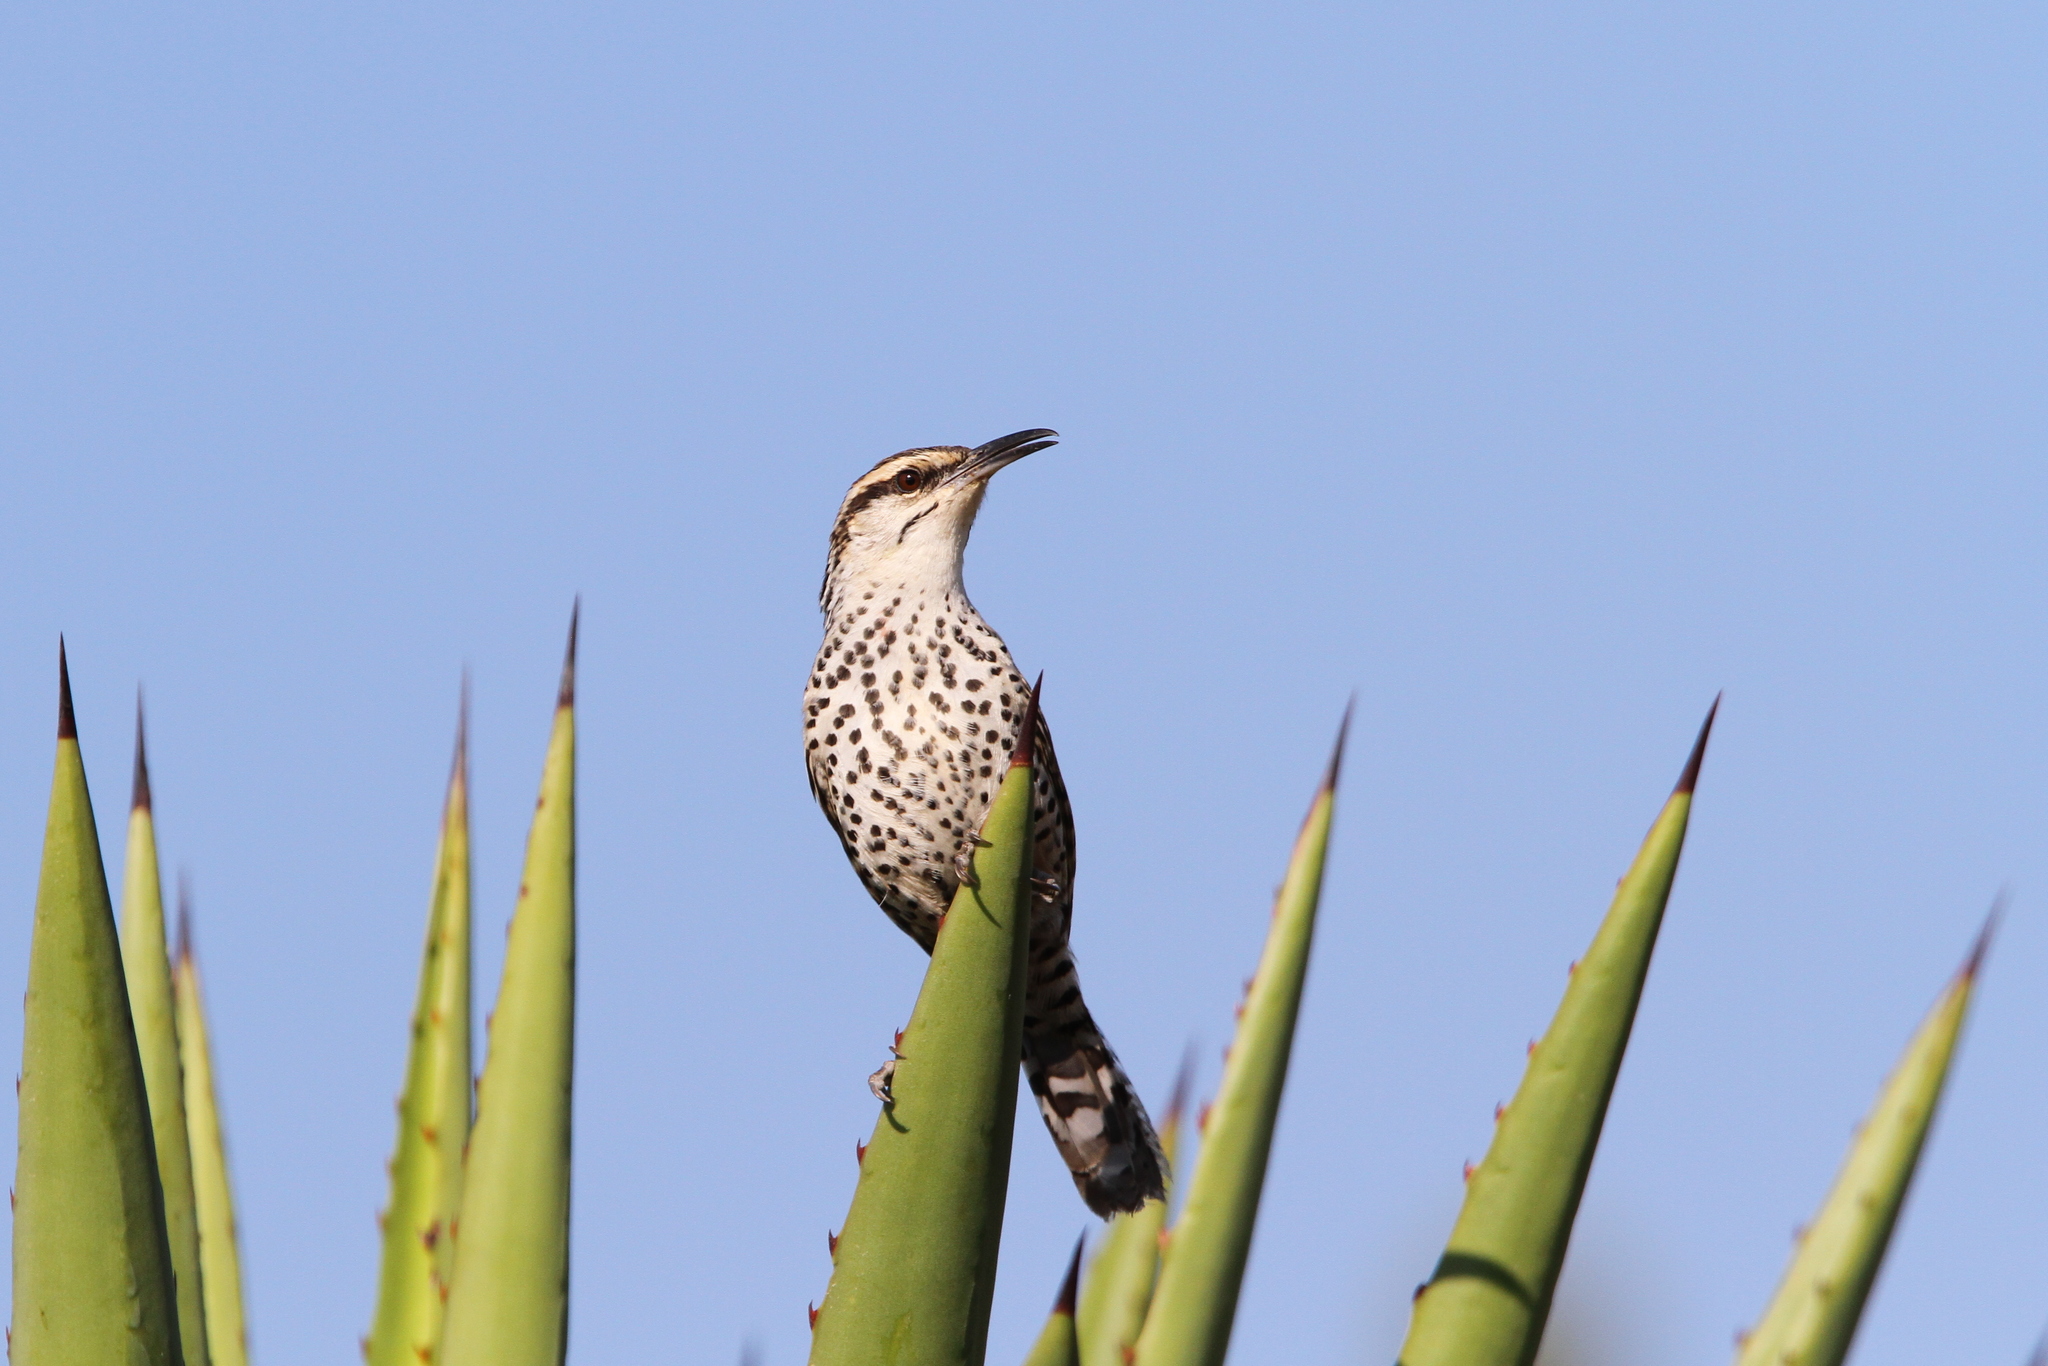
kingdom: Animalia
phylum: Chordata
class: Aves
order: Passeriformes
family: Troglodytidae
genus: Campylorhynchus
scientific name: Campylorhynchus jocosus
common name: Boucard's wren
